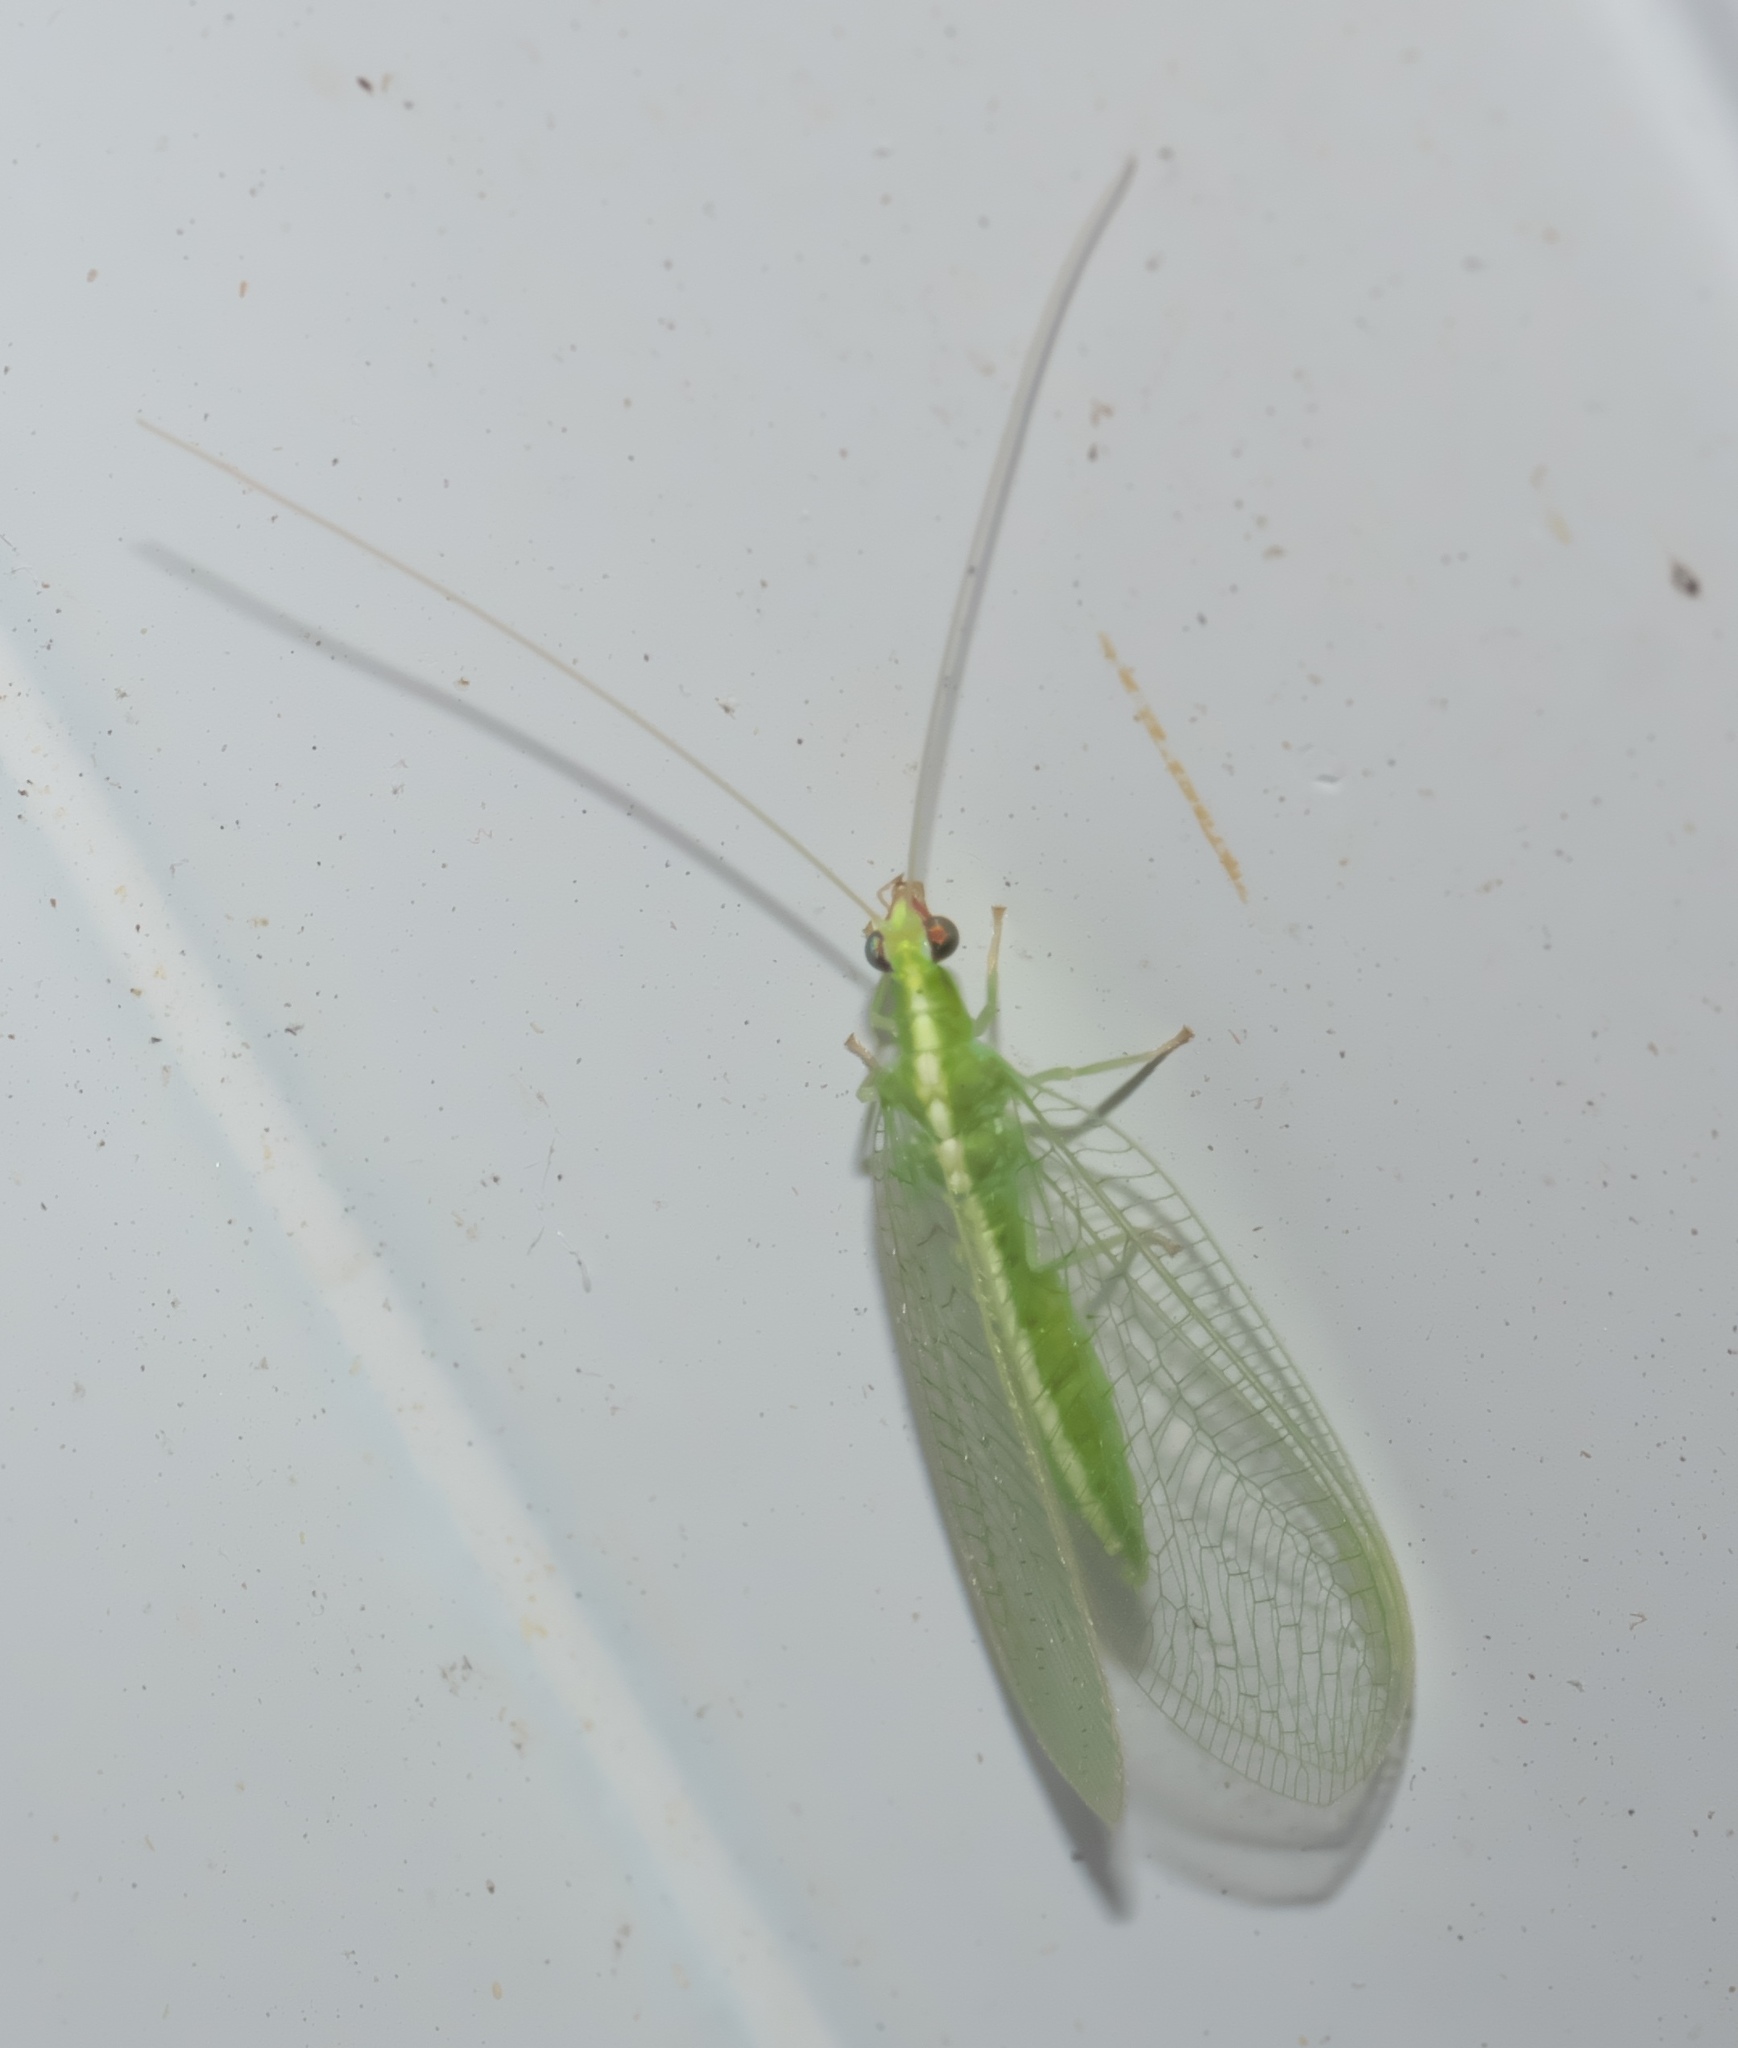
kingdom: Animalia
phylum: Arthropoda
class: Insecta
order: Neuroptera
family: Chrysopidae
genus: Chrysoperla
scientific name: Chrysoperla rufilabris
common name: Red-lipped green lacewing
